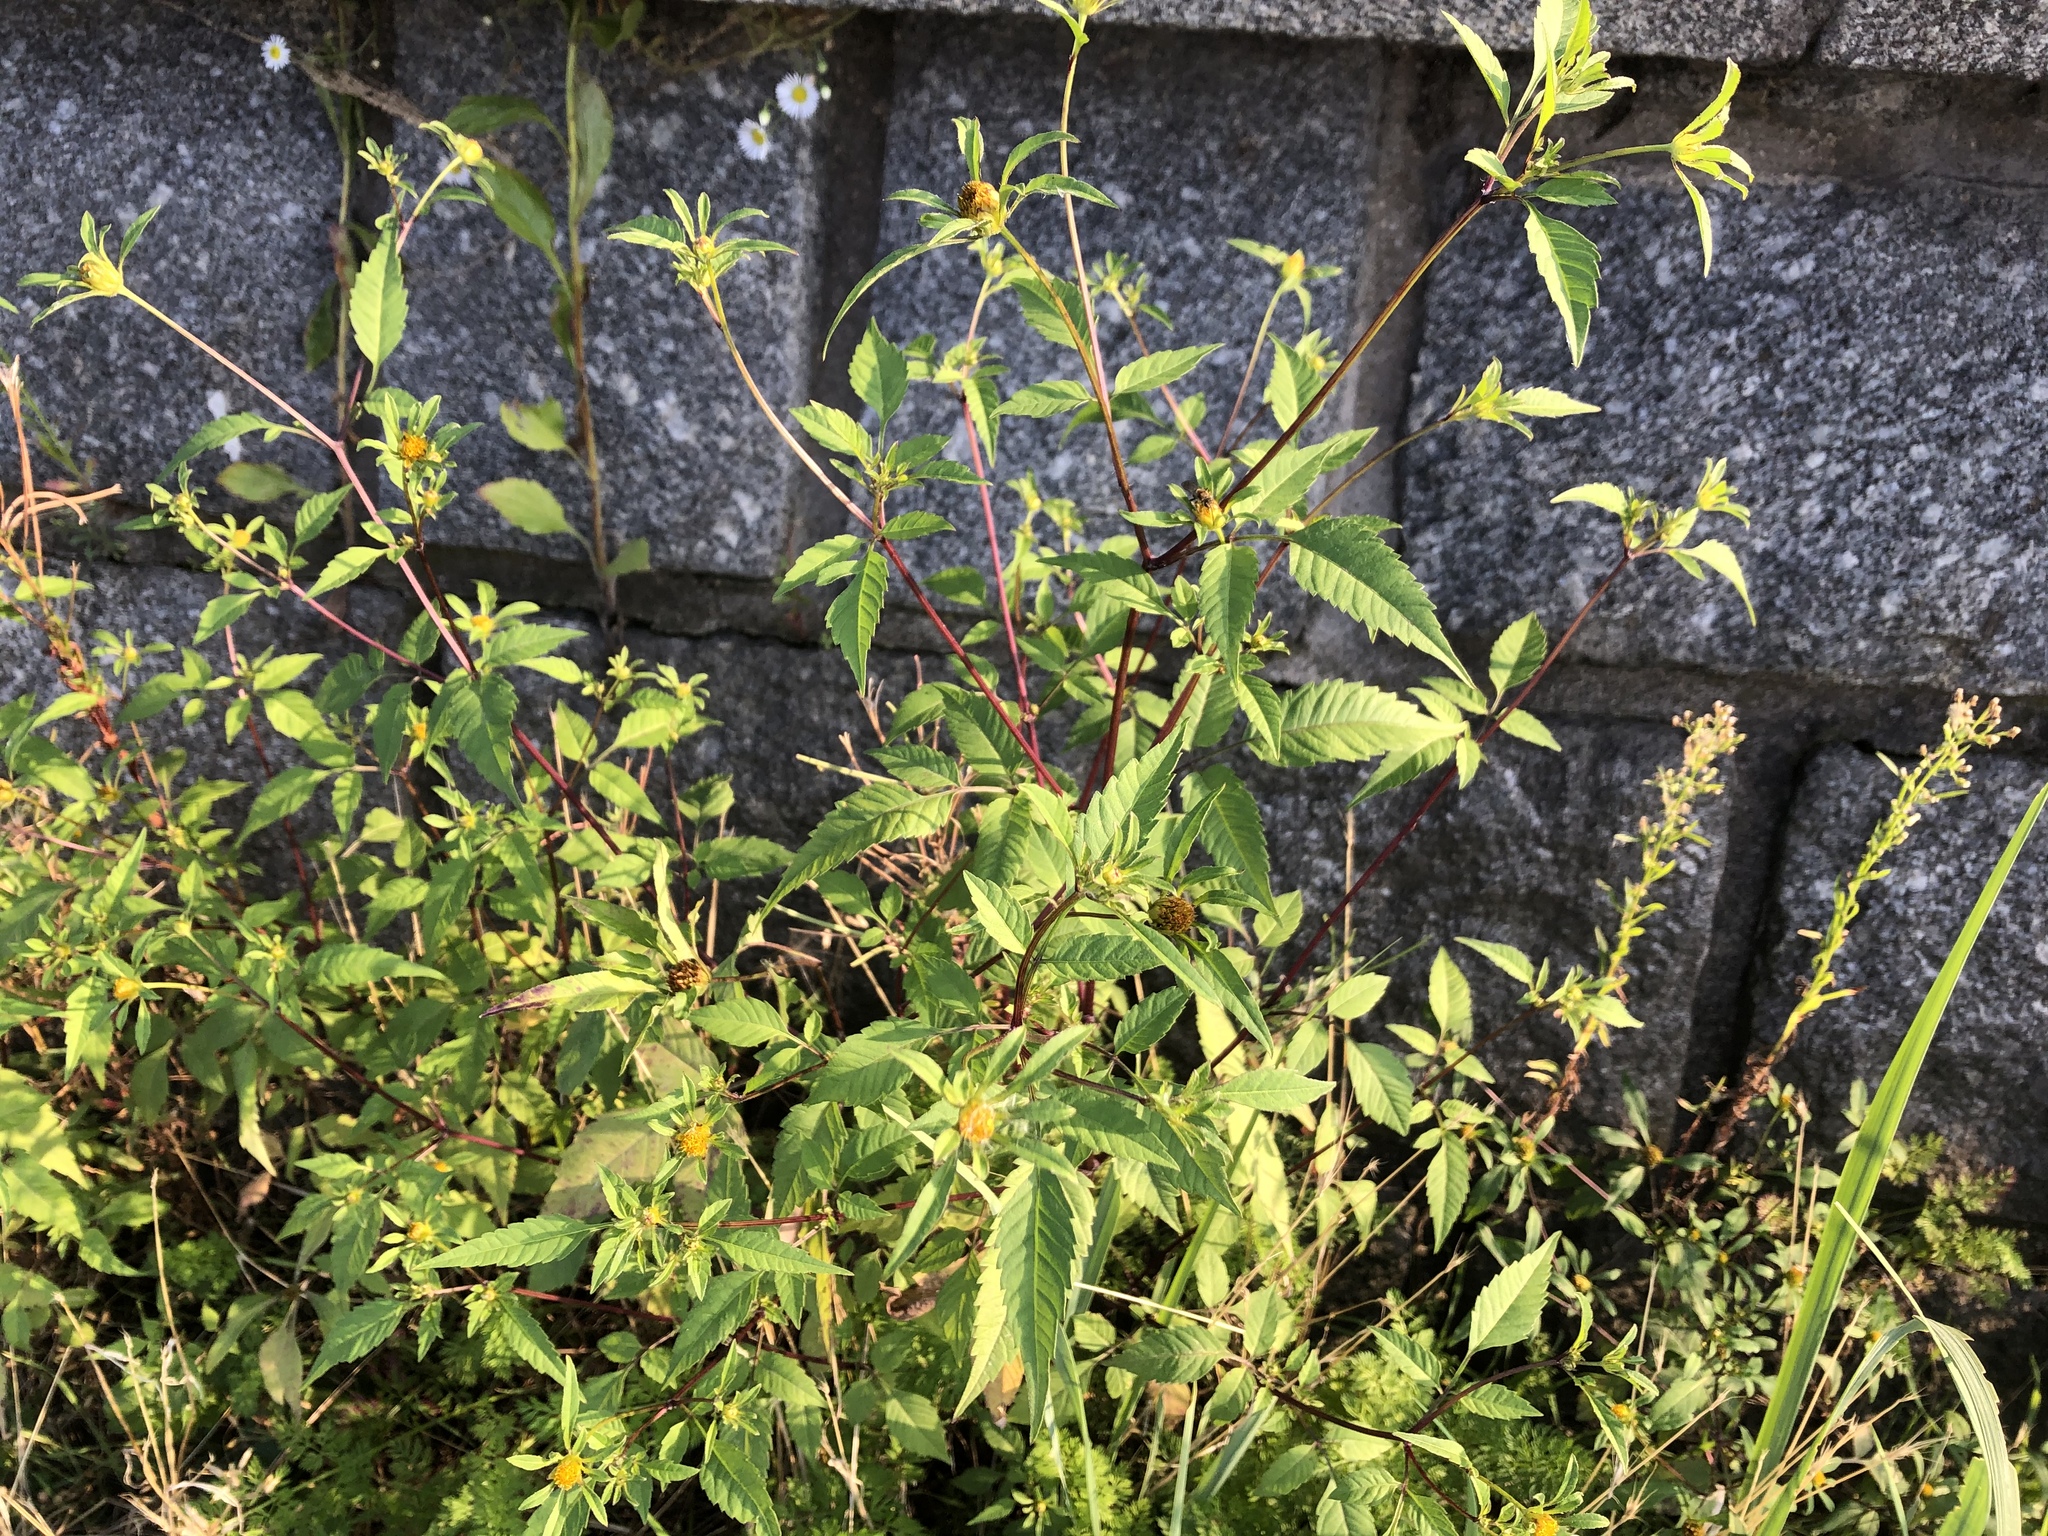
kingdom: Plantae
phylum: Tracheophyta
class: Magnoliopsida
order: Asterales
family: Asteraceae
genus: Bidens
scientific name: Bidens frondosa
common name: Beggarticks
